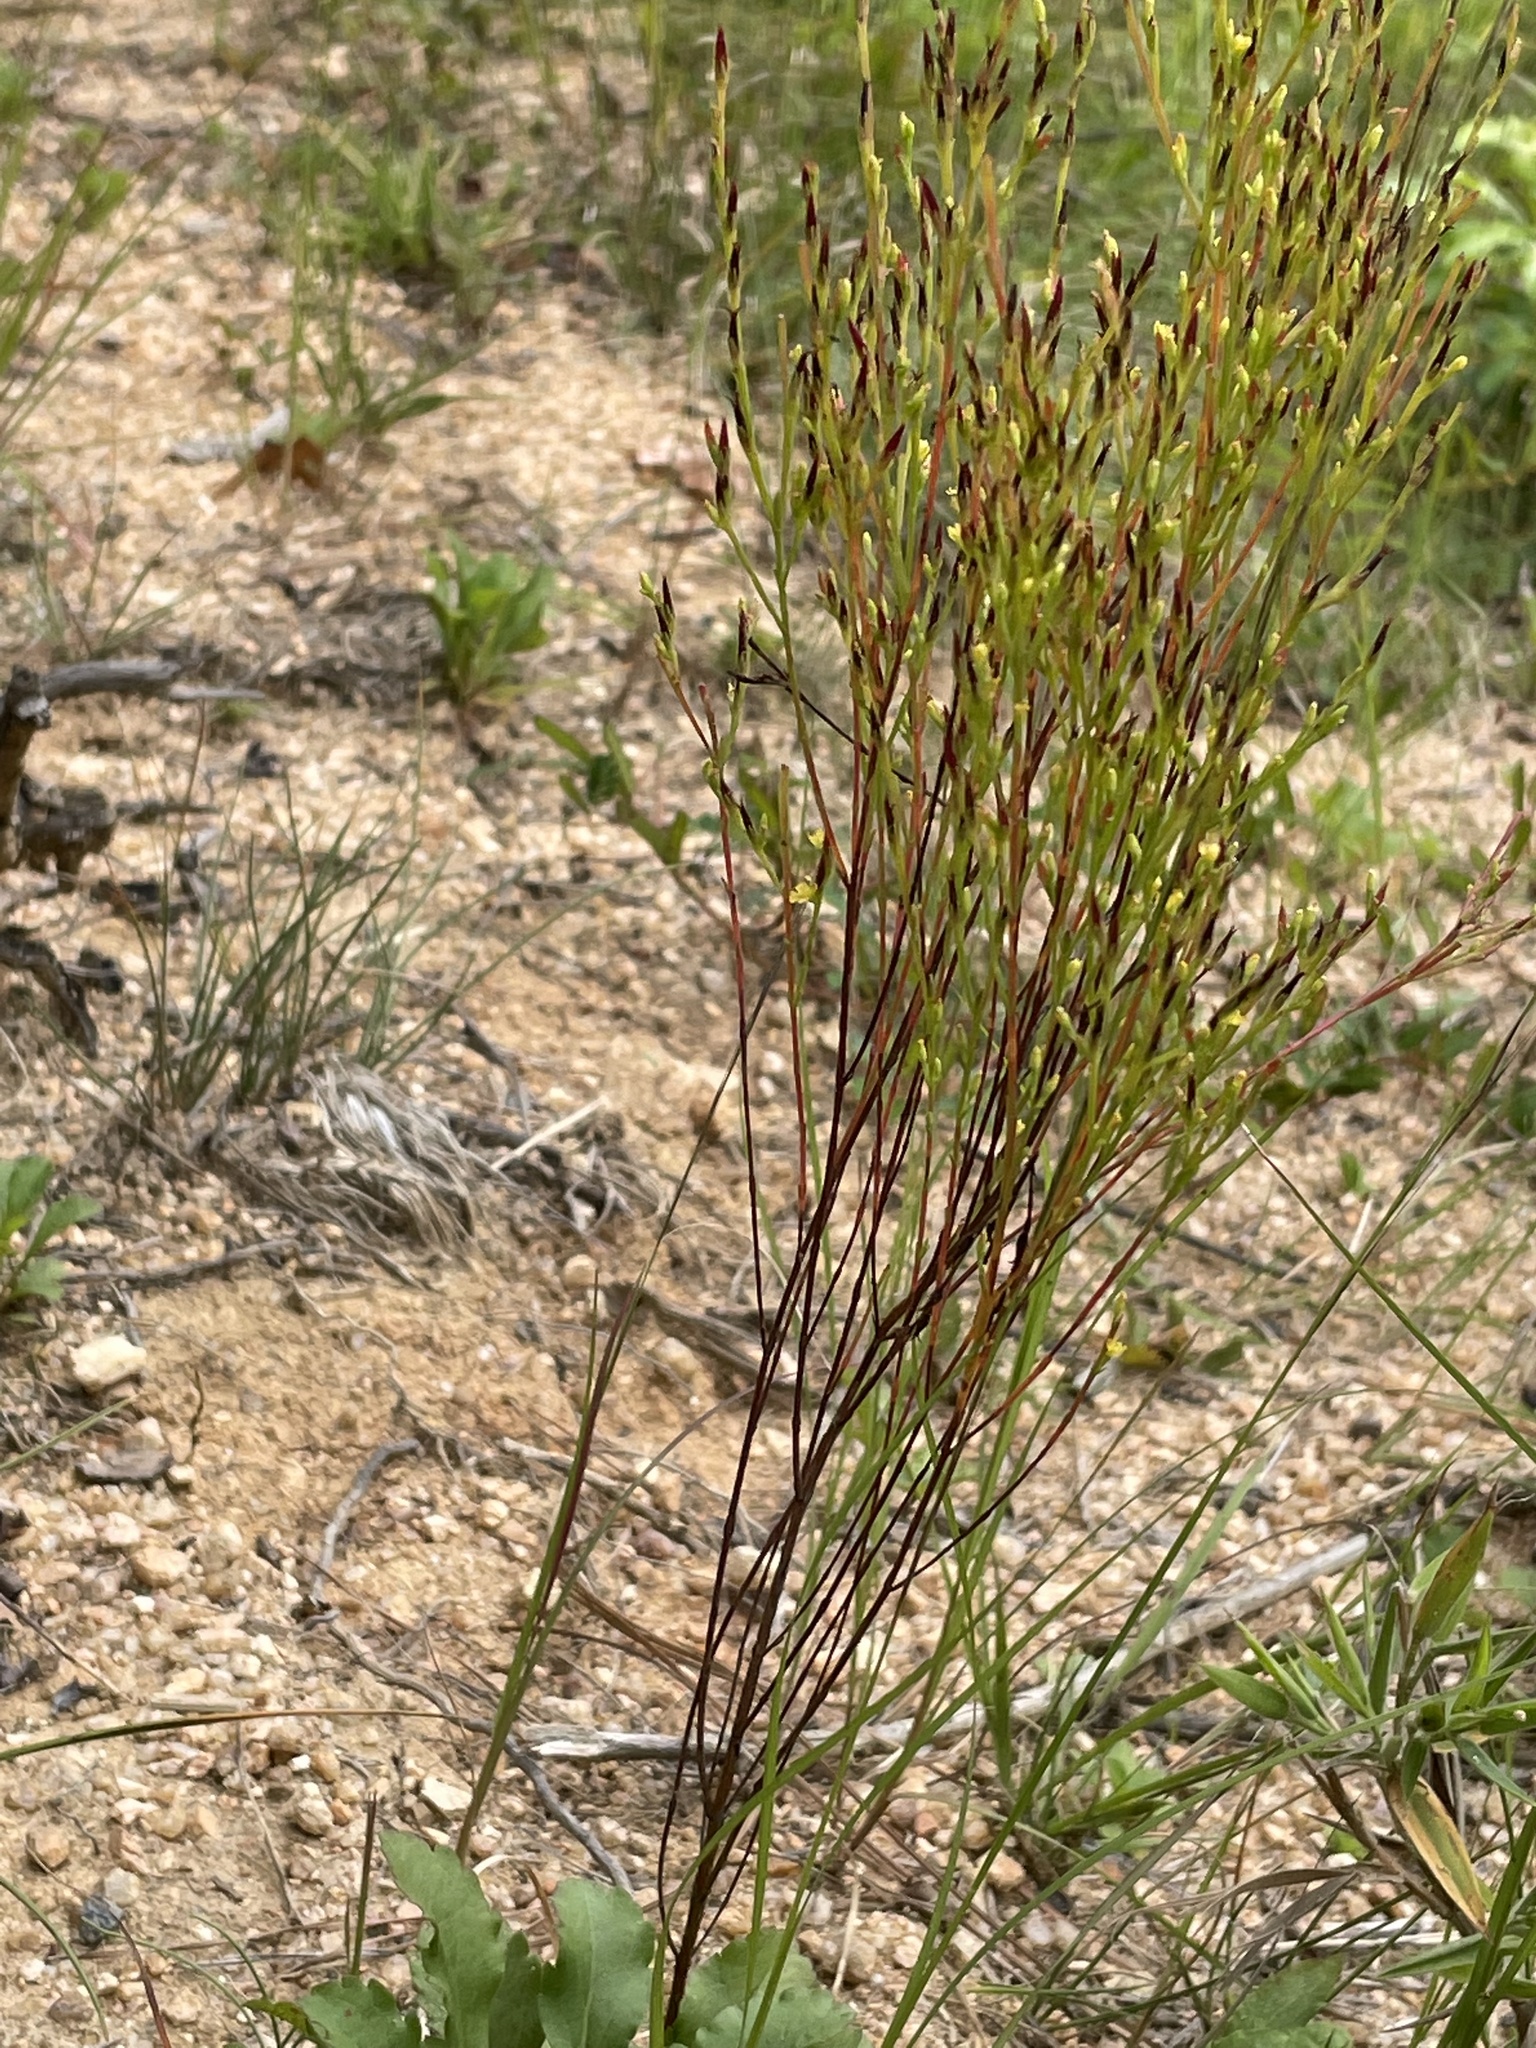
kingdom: Plantae
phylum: Tracheophyta
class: Magnoliopsida
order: Malpighiales
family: Hypericaceae
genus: Hypericum
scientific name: Hypericum gentianoides
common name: Gentian-leaved st. john's-wort
